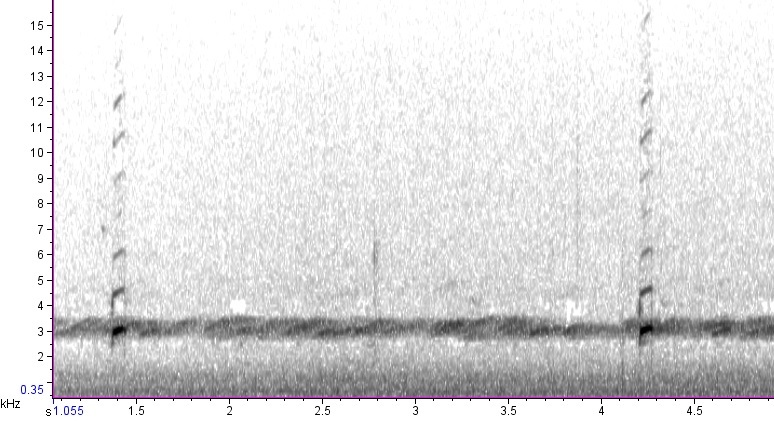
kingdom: Animalia
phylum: Chordata
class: Amphibia
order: Anura
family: Hylidae
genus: Pseudacris
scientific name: Pseudacris crucifer
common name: Spring peeper
